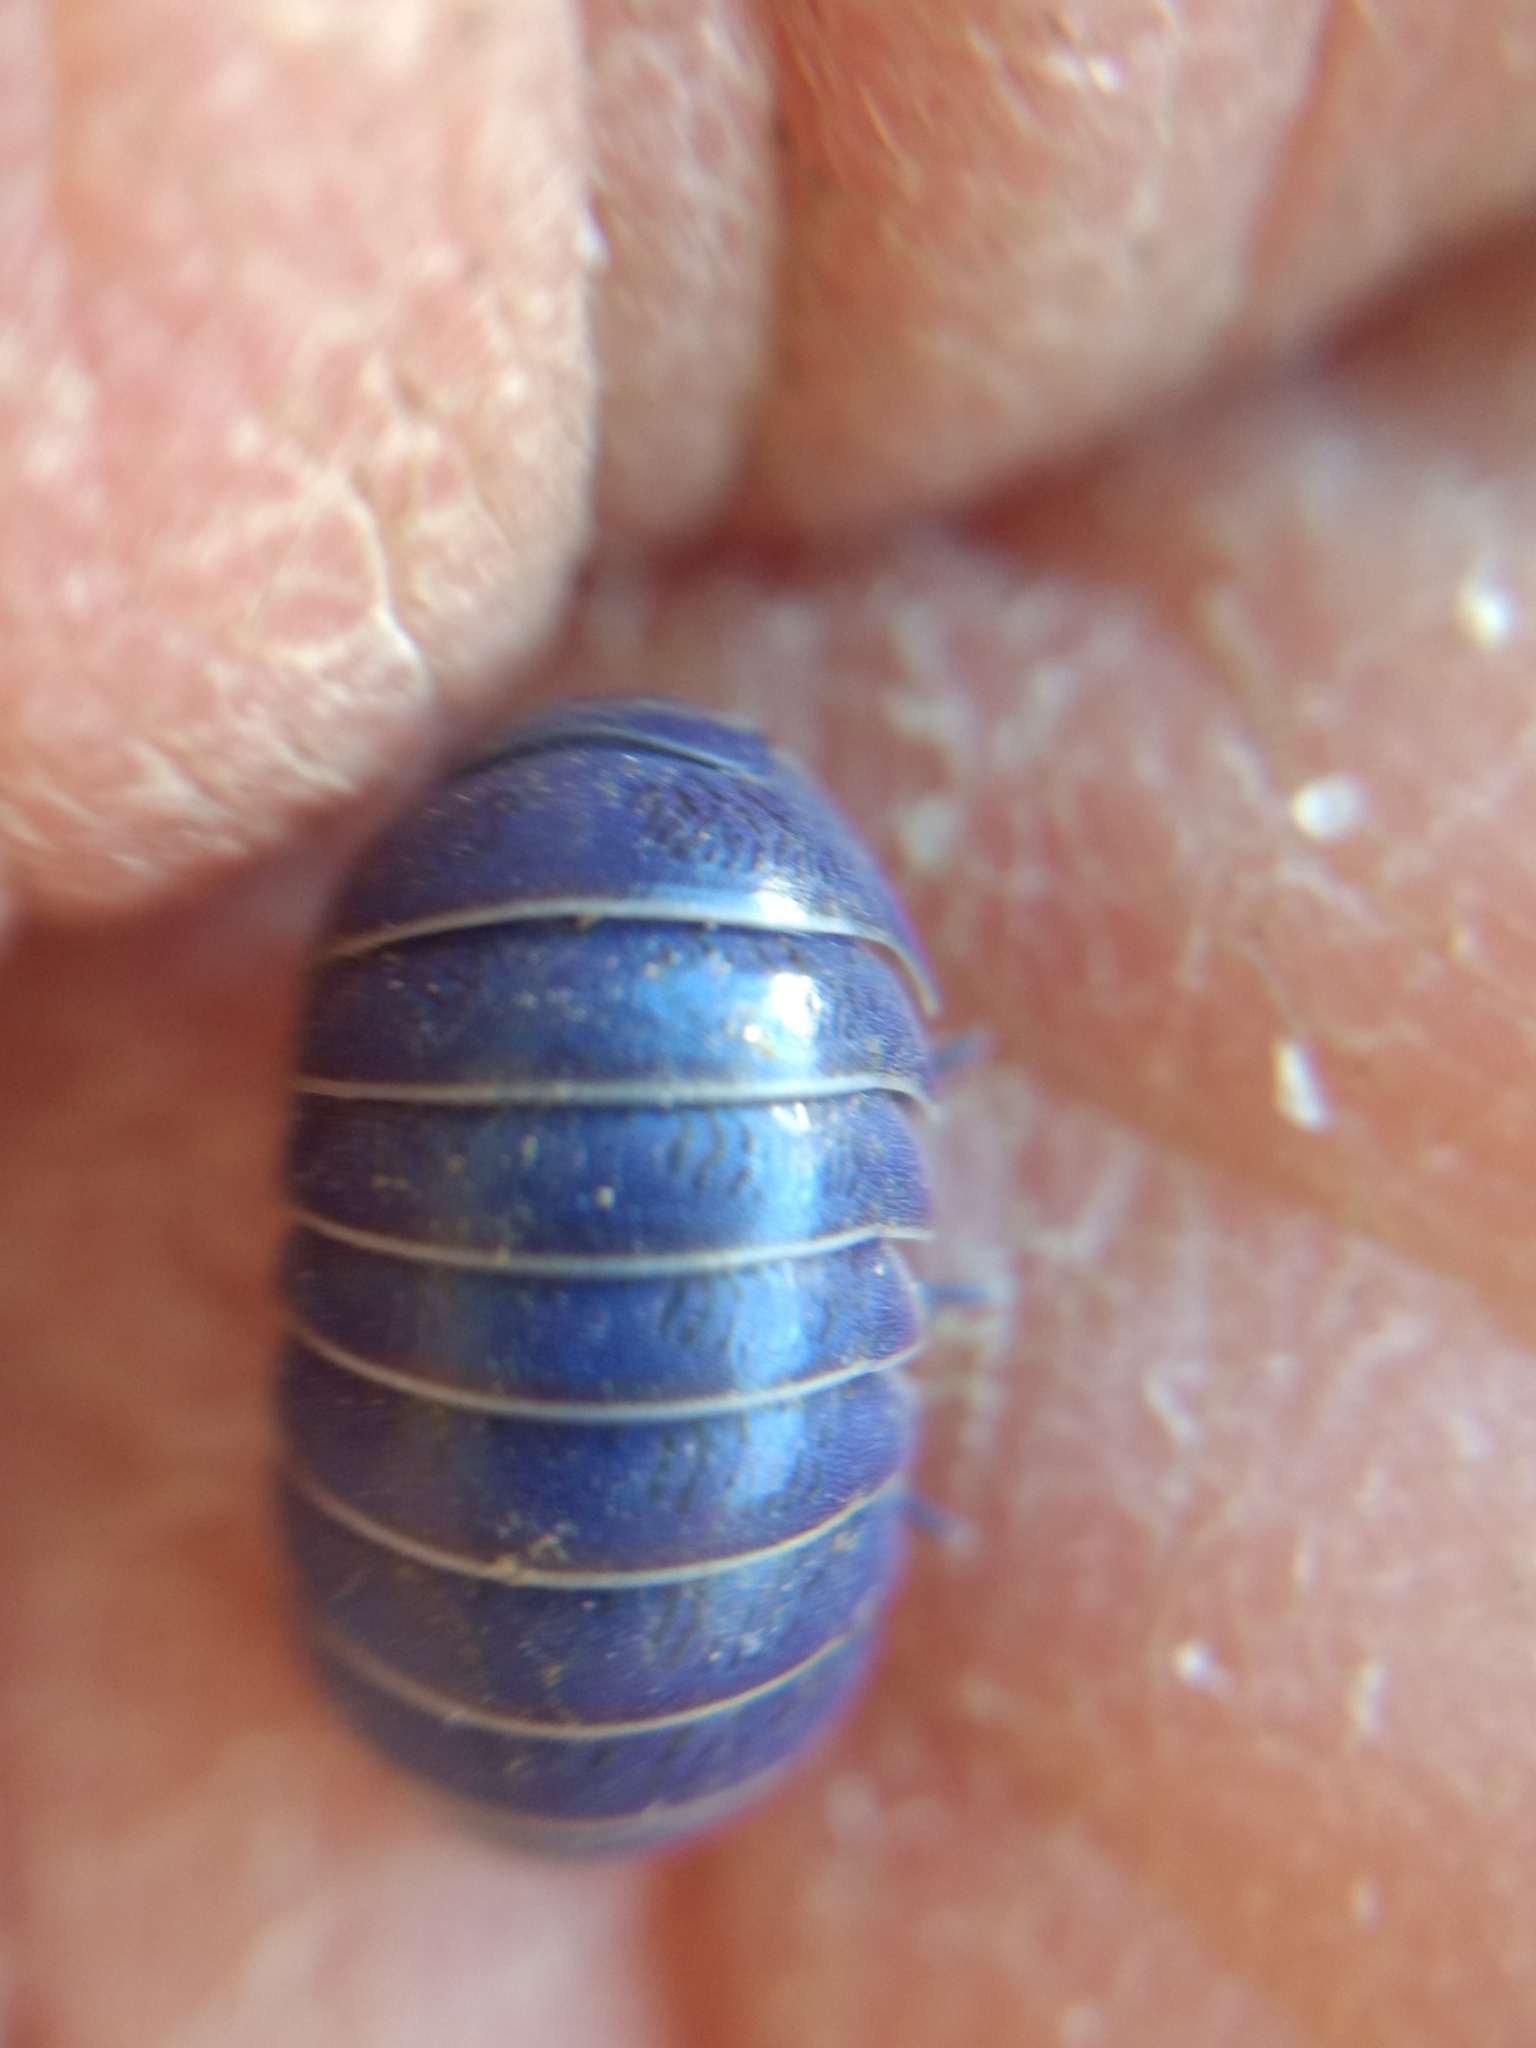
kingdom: Viruses
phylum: Nucleocytoviricota
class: Megaviricetes
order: Pimascovirales
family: Iridoviridae
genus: Iridovirus
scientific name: Iridovirus Invertebrate iridescent virus 31
